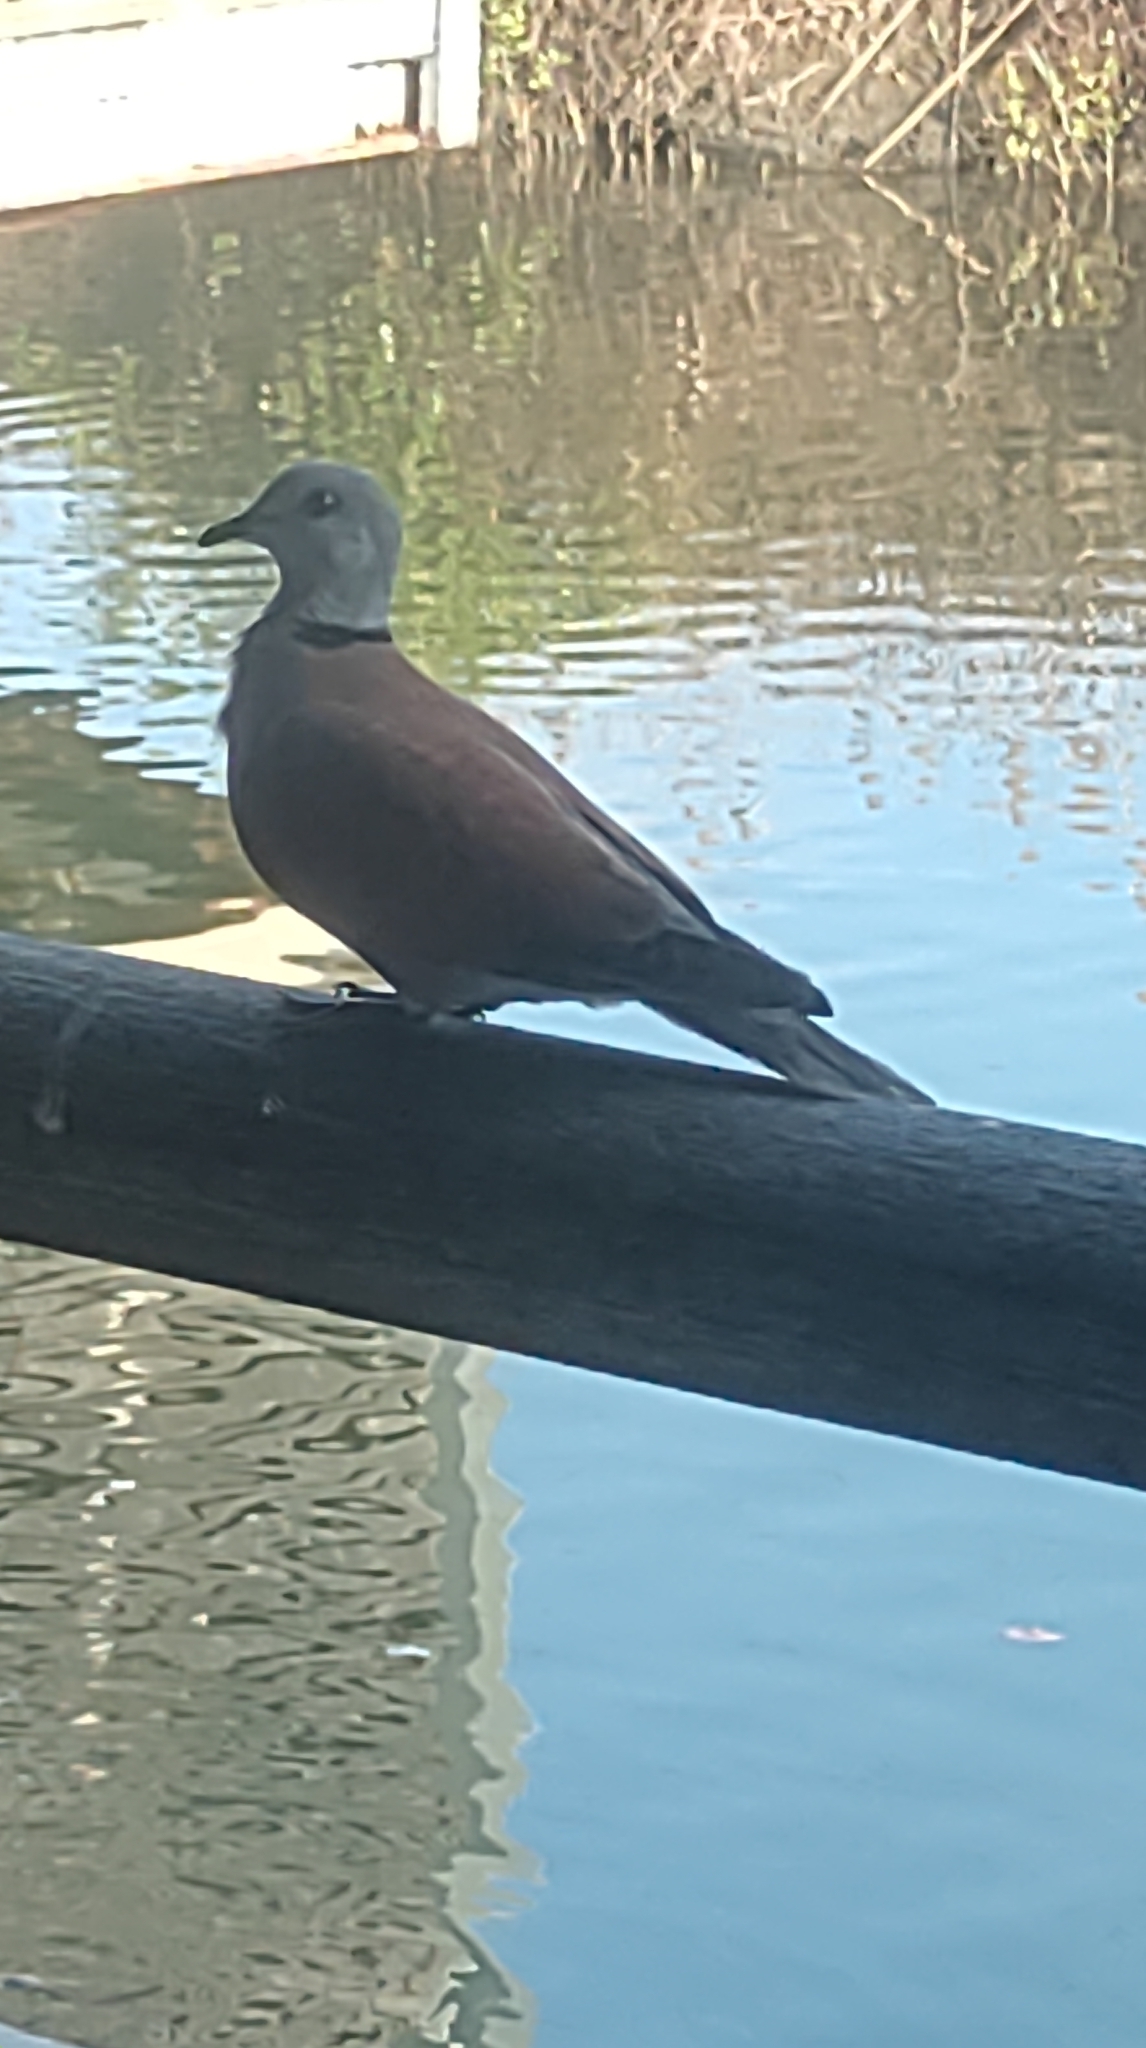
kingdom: Animalia
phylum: Chordata
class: Aves
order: Columbiformes
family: Columbidae
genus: Streptopelia
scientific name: Streptopelia tranquebarica
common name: Red turtle dove
